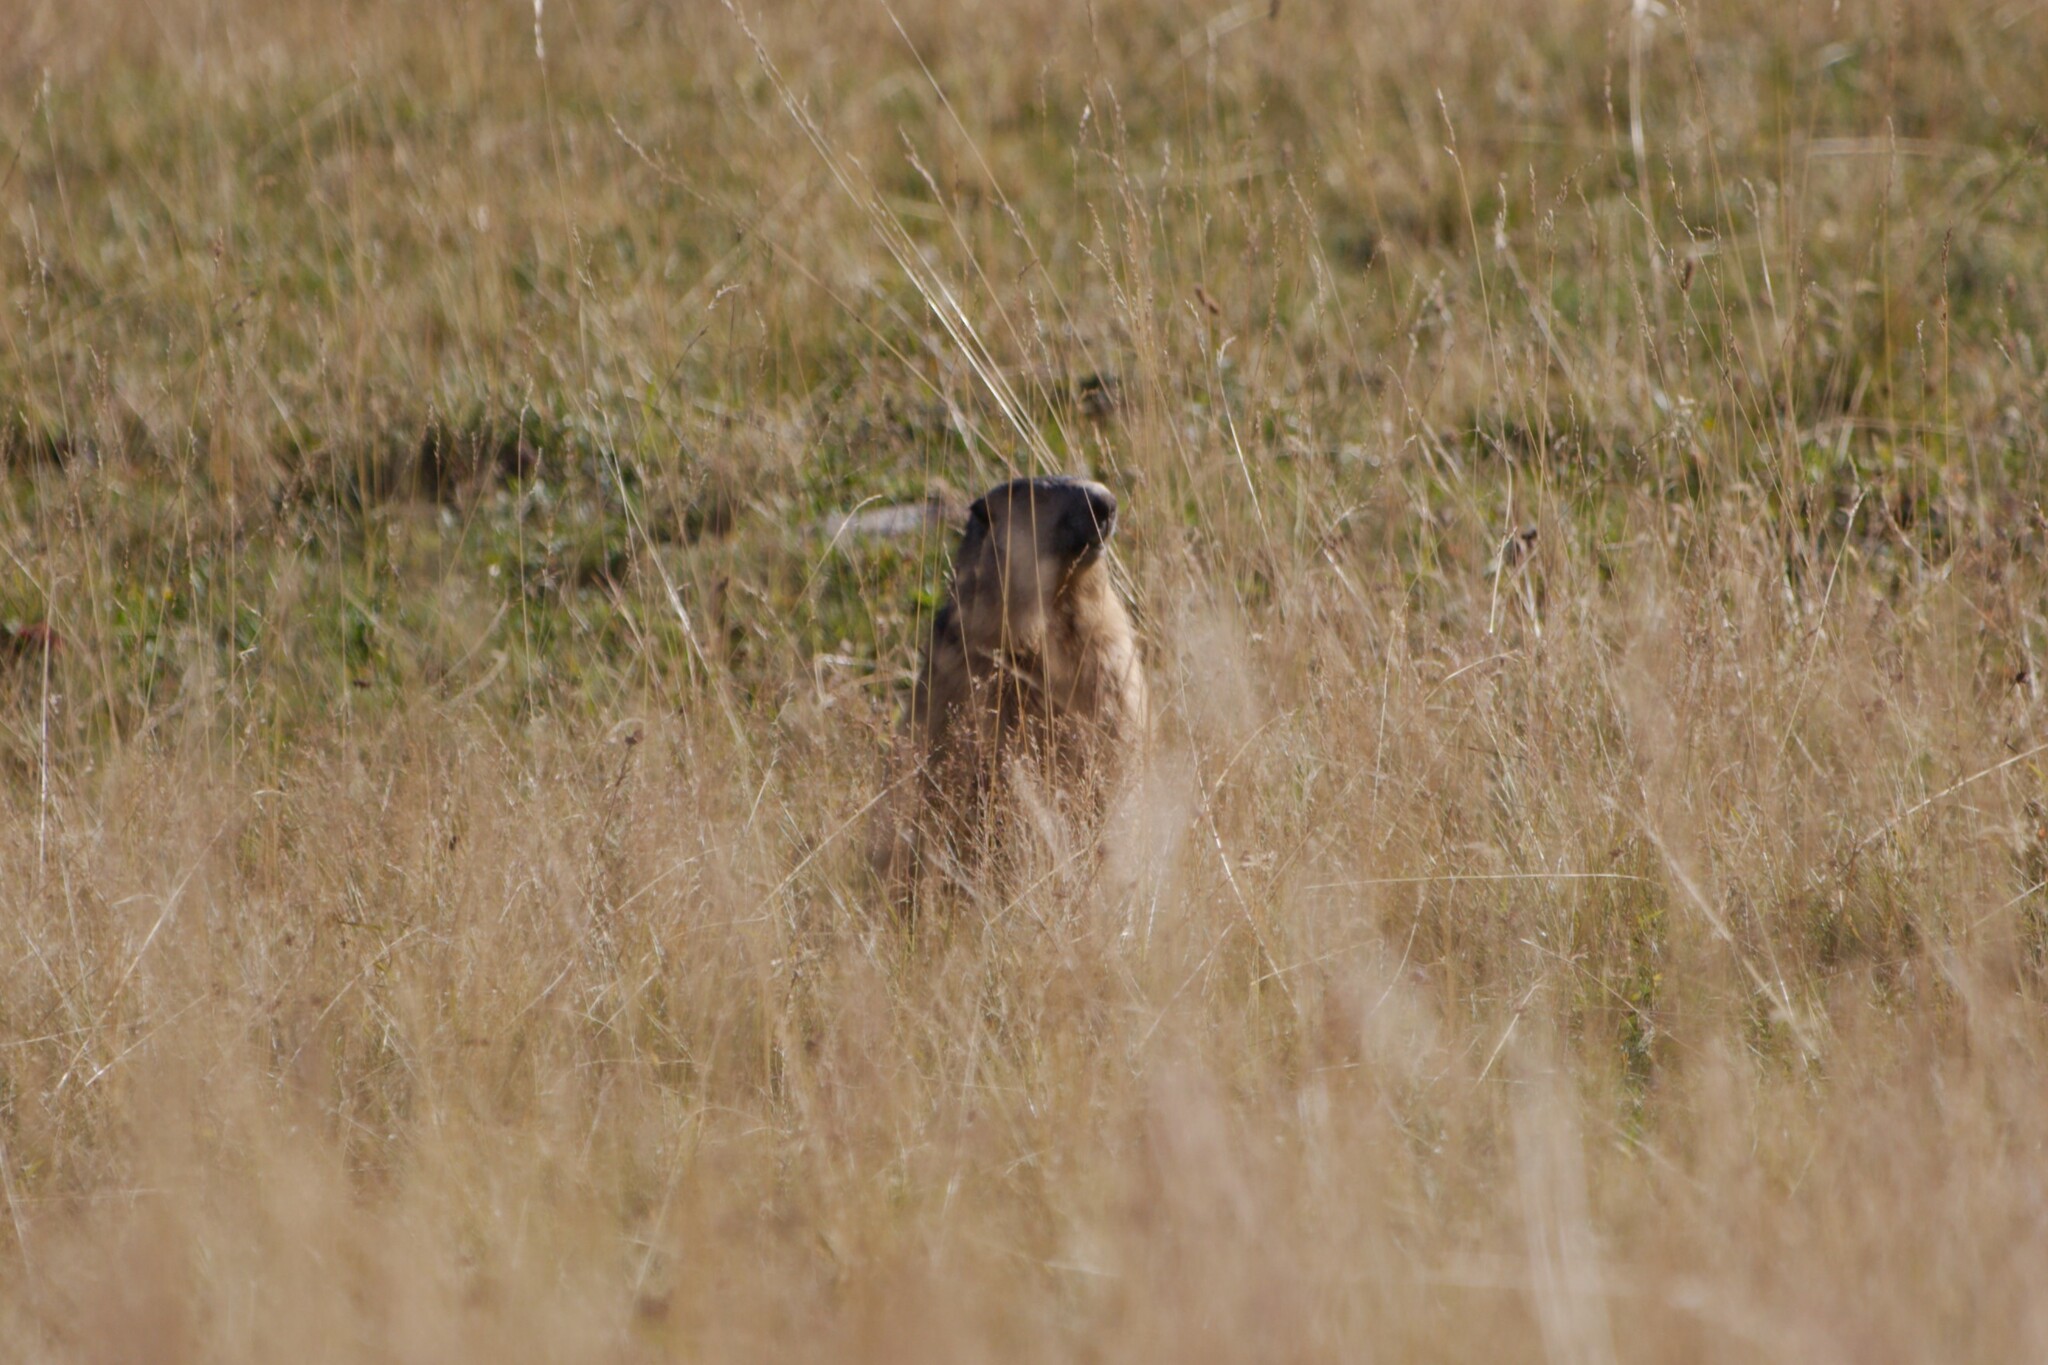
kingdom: Animalia
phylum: Chordata
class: Mammalia
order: Rodentia
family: Sciuridae
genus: Marmota
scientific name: Marmota marmota
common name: Alpine marmot
